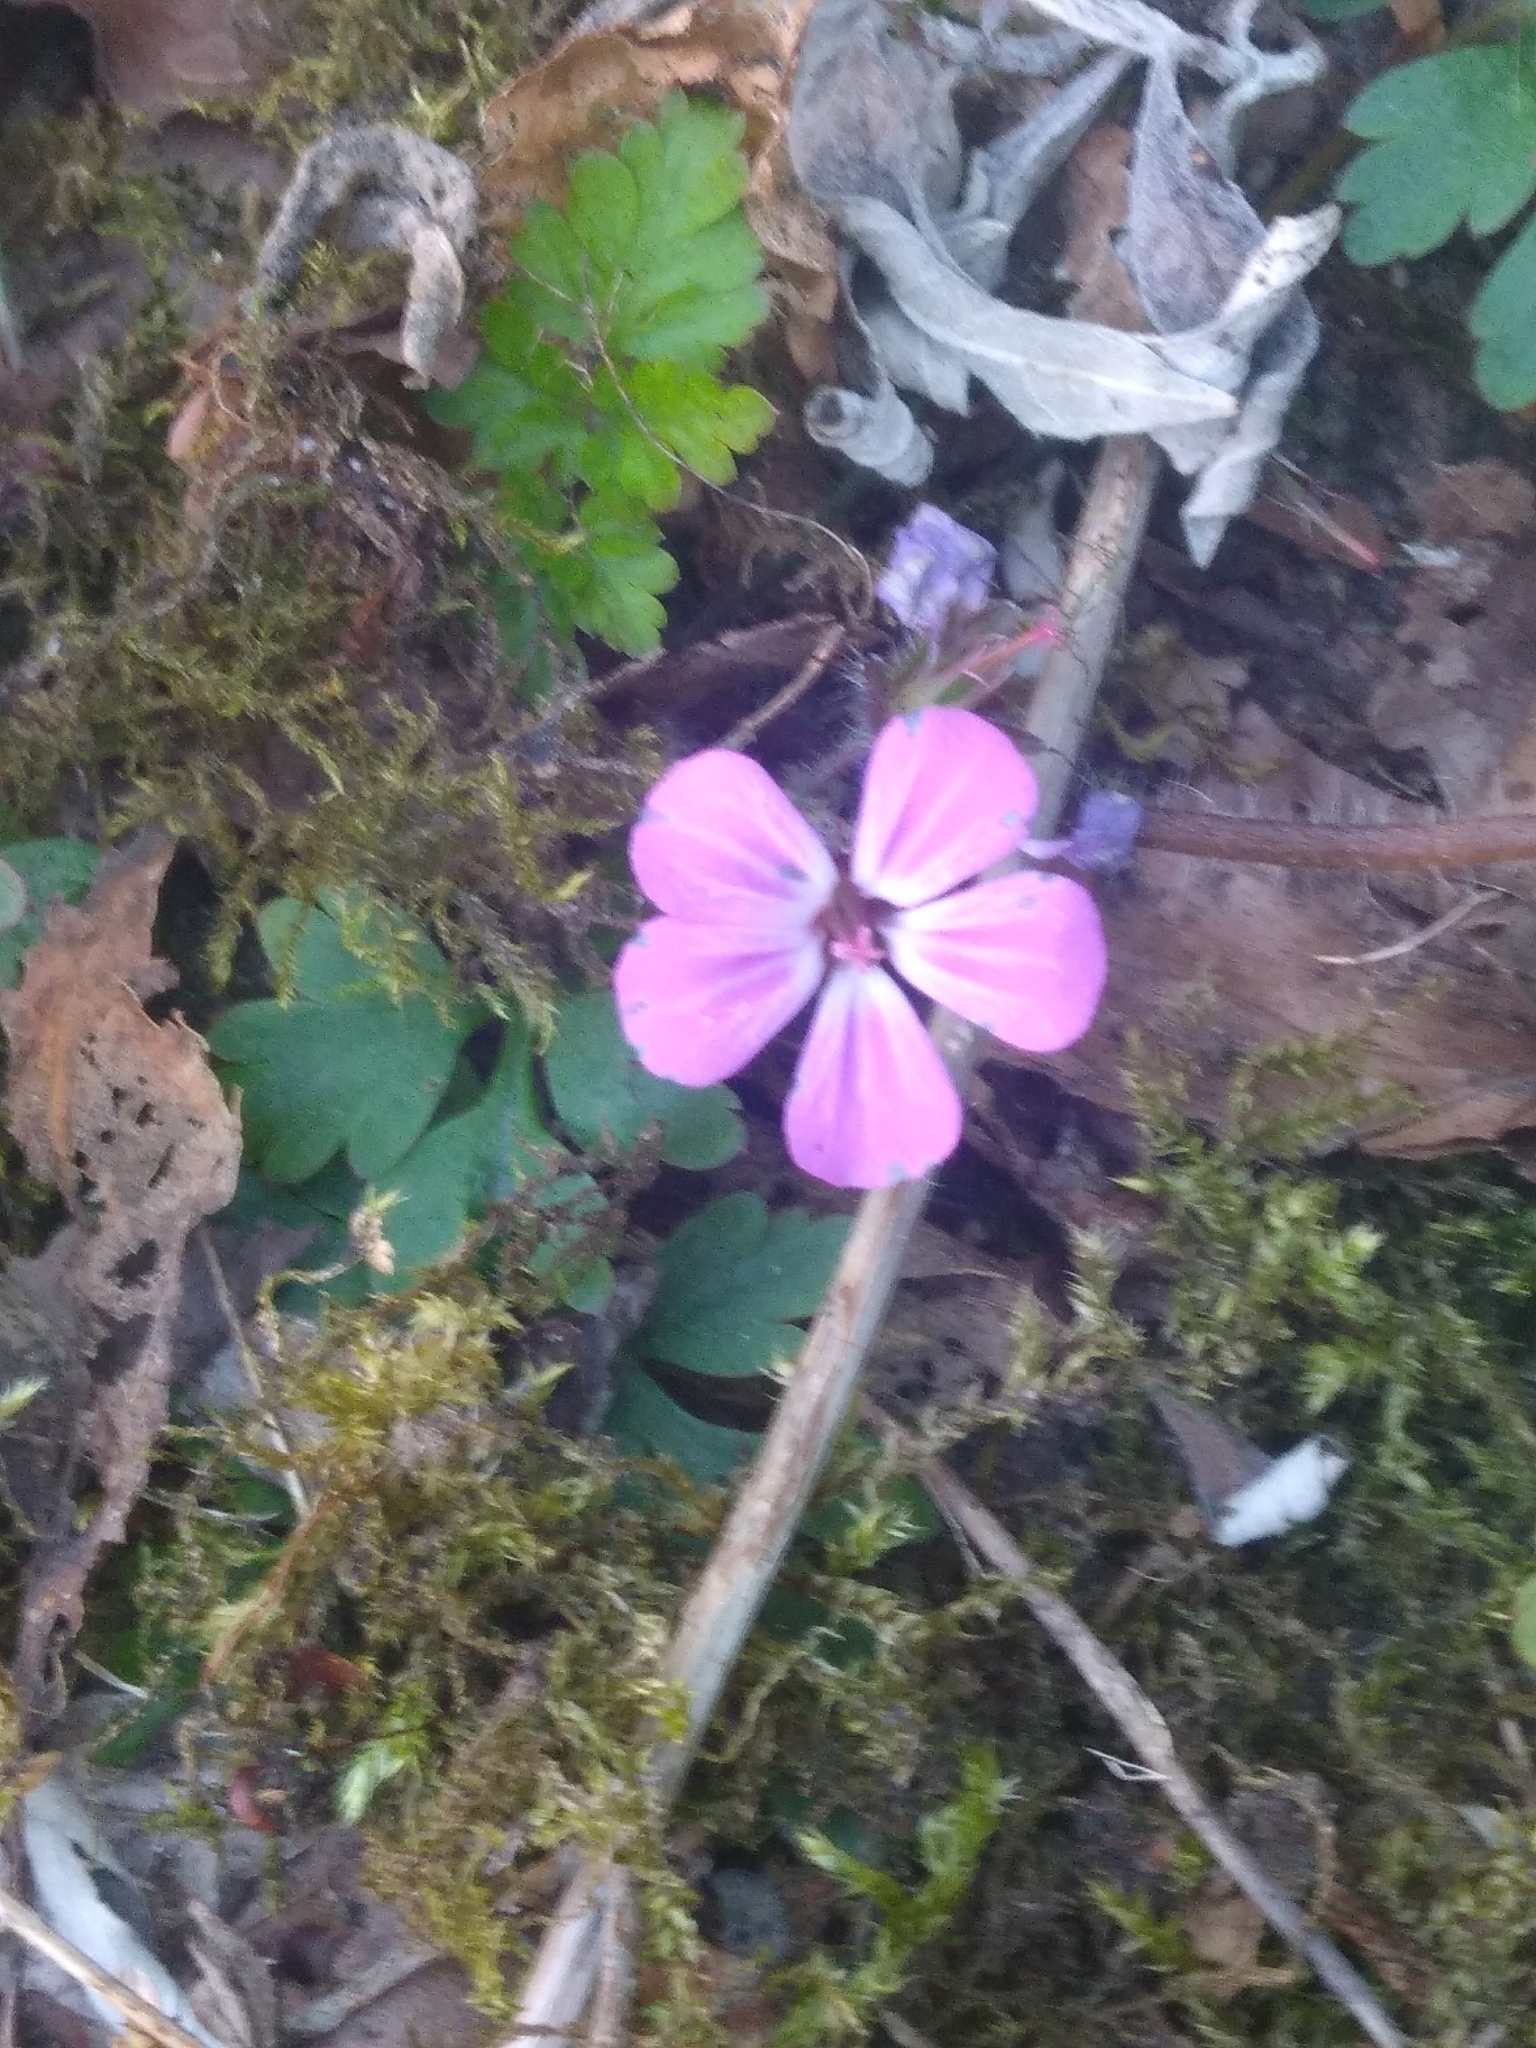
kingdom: Plantae
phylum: Tracheophyta
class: Magnoliopsida
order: Geraniales
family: Geraniaceae
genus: Geranium
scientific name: Geranium robertianum
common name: Herb-robert
